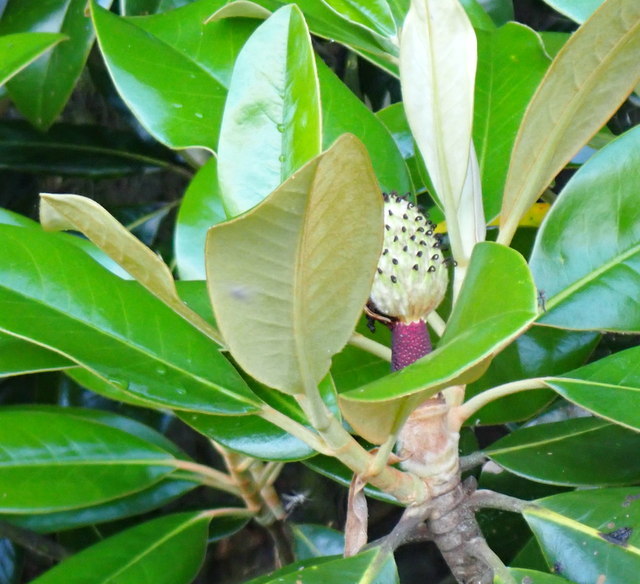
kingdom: Plantae
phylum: Tracheophyta
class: Magnoliopsida
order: Magnoliales
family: Magnoliaceae
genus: Magnolia
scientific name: Magnolia grandiflora
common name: Southern magnolia
